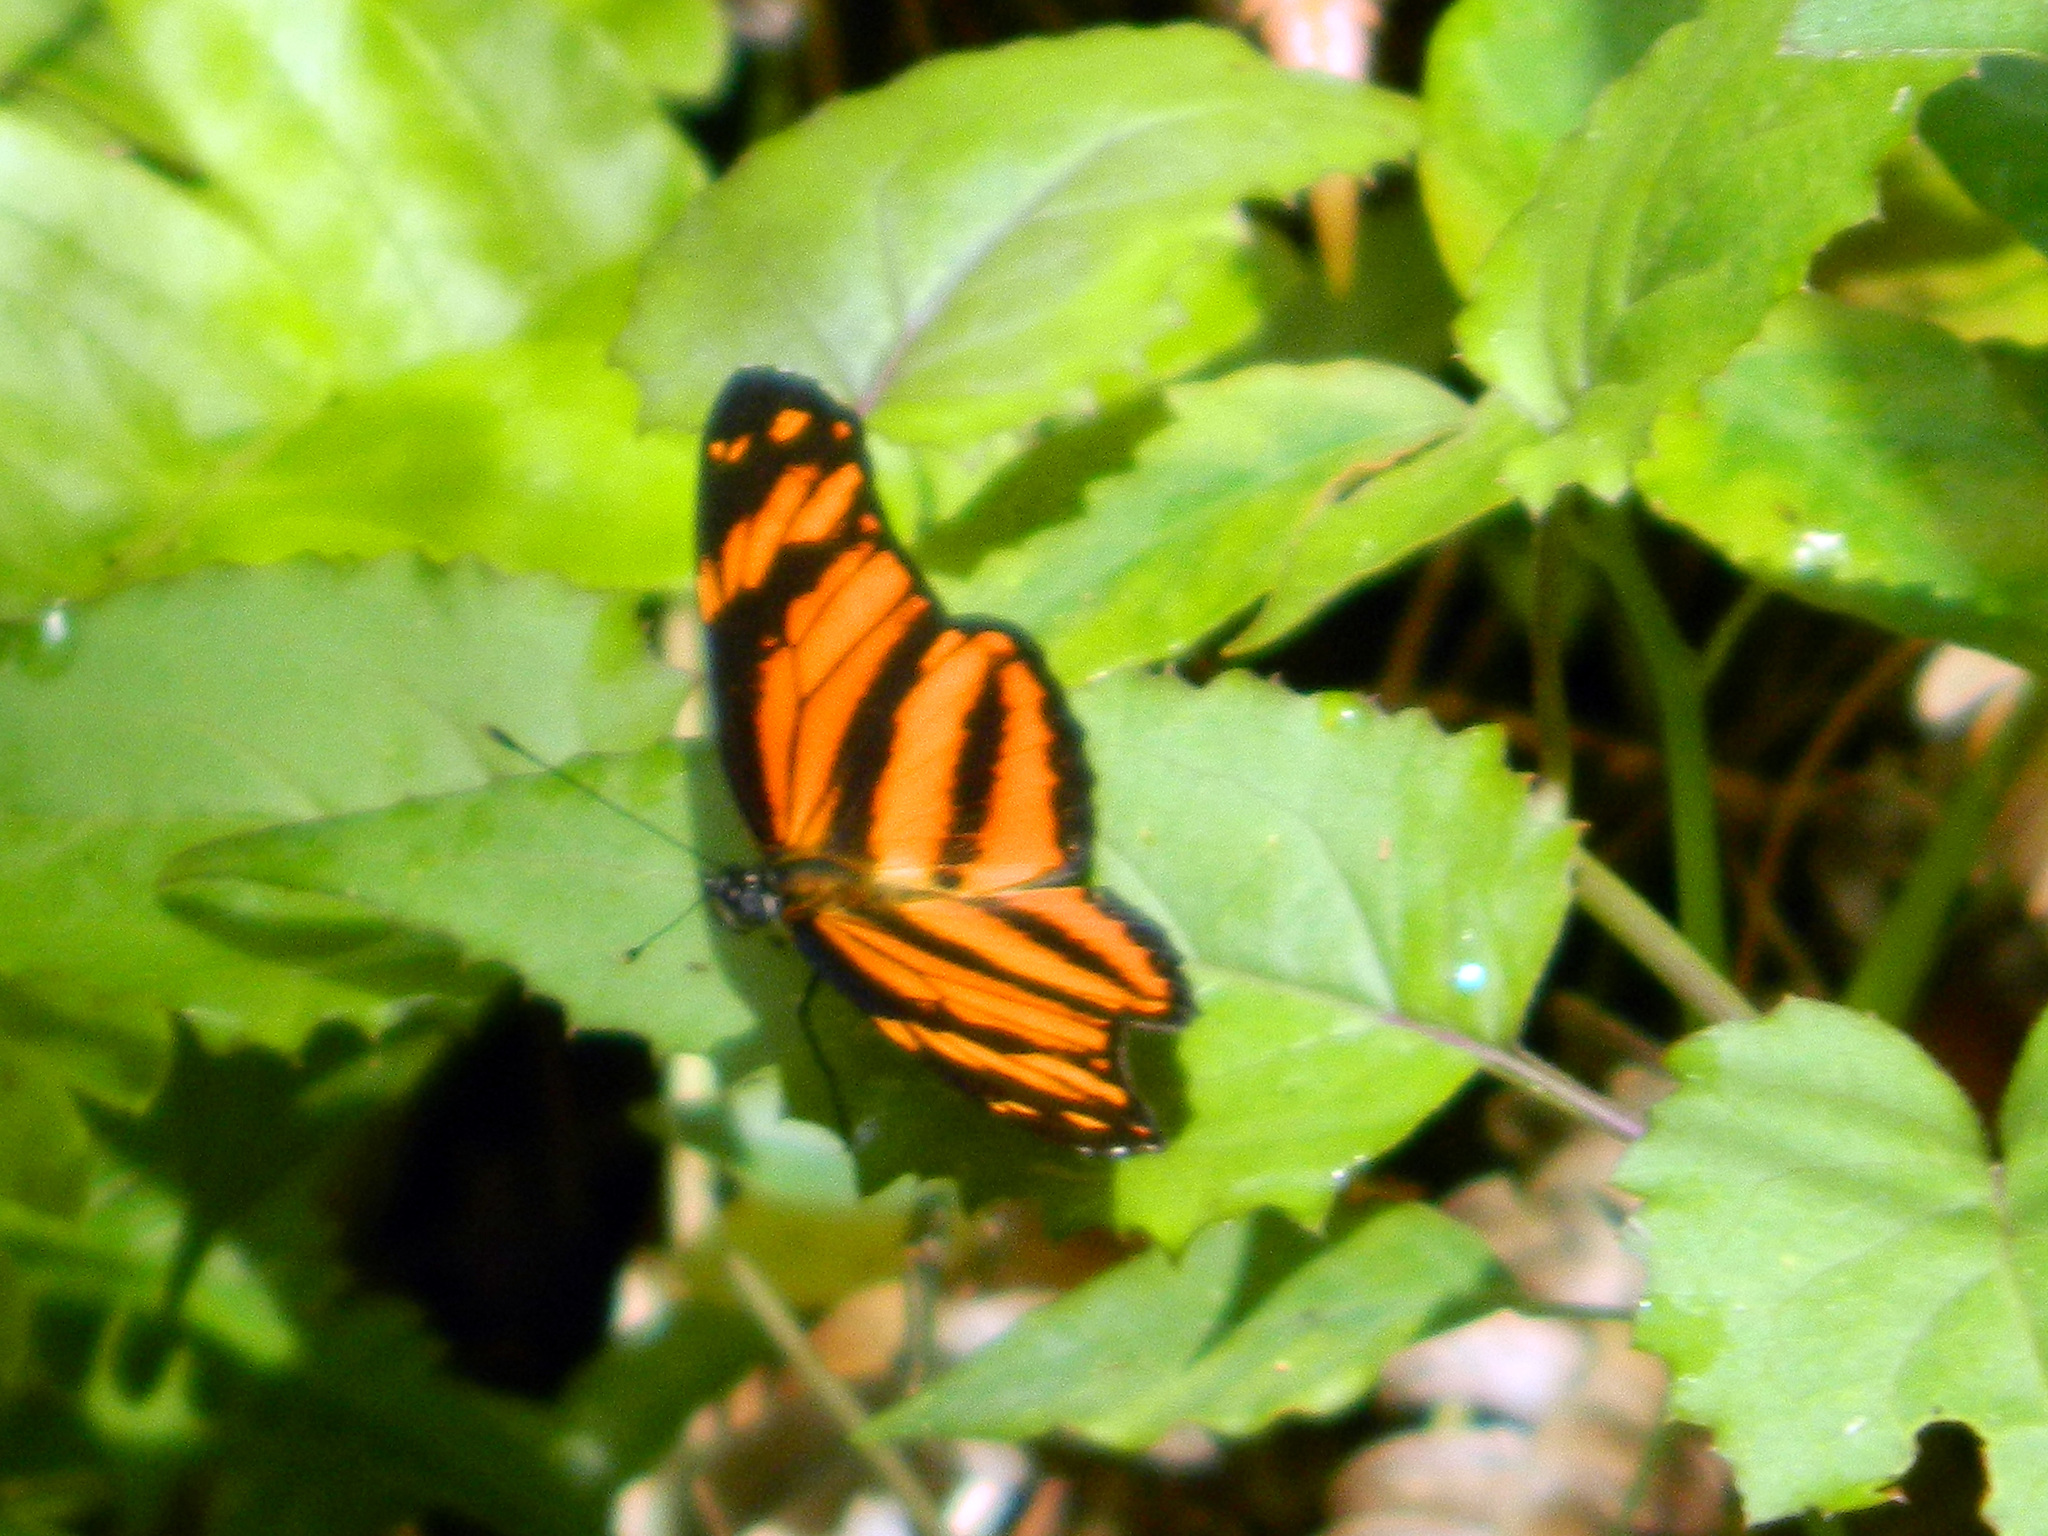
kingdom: Animalia
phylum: Arthropoda
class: Insecta
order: Lepidoptera
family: Nymphalidae
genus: Eresia
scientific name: Eresia phillyra
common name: Longwing crescent
